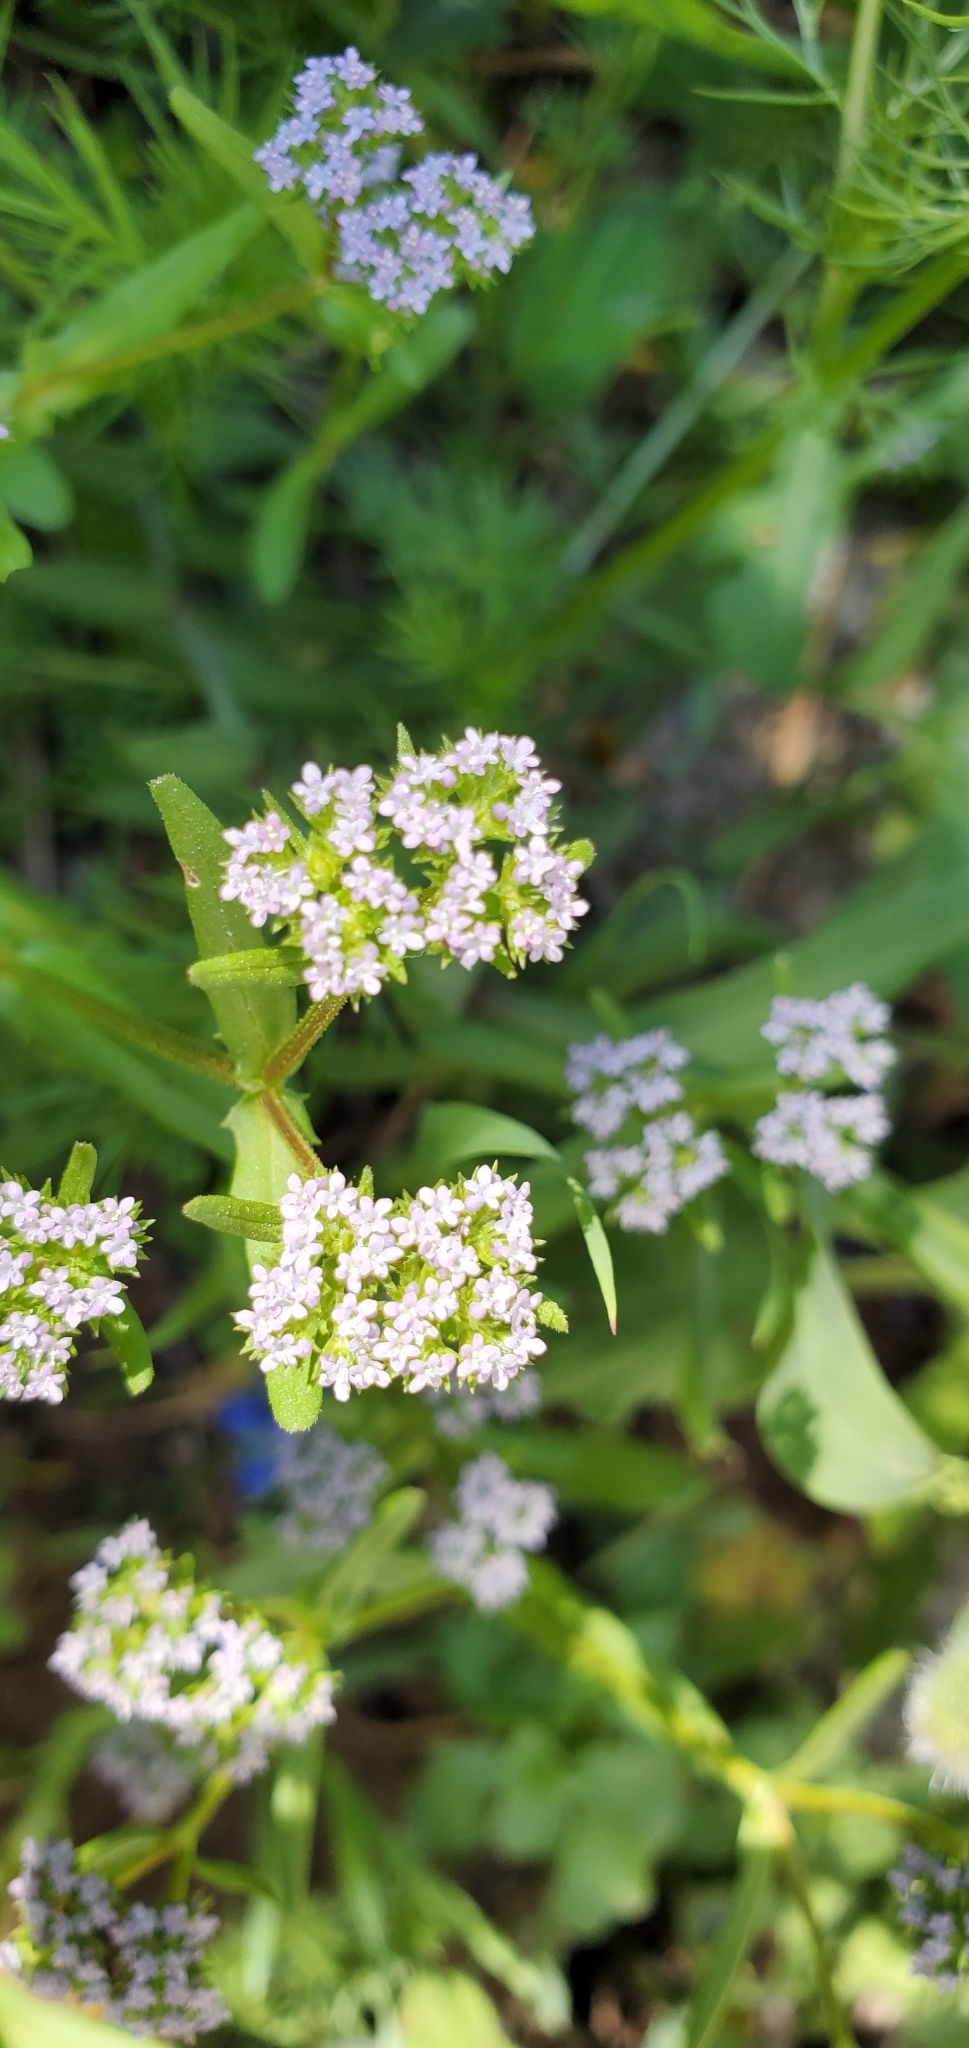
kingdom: Plantae
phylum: Tracheophyta
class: Magnoliopsida
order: Dipsacales
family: Caprifoliaceae
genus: Valerianella
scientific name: Valerianella eriocarpa
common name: Hairy-fruited cornsalad
